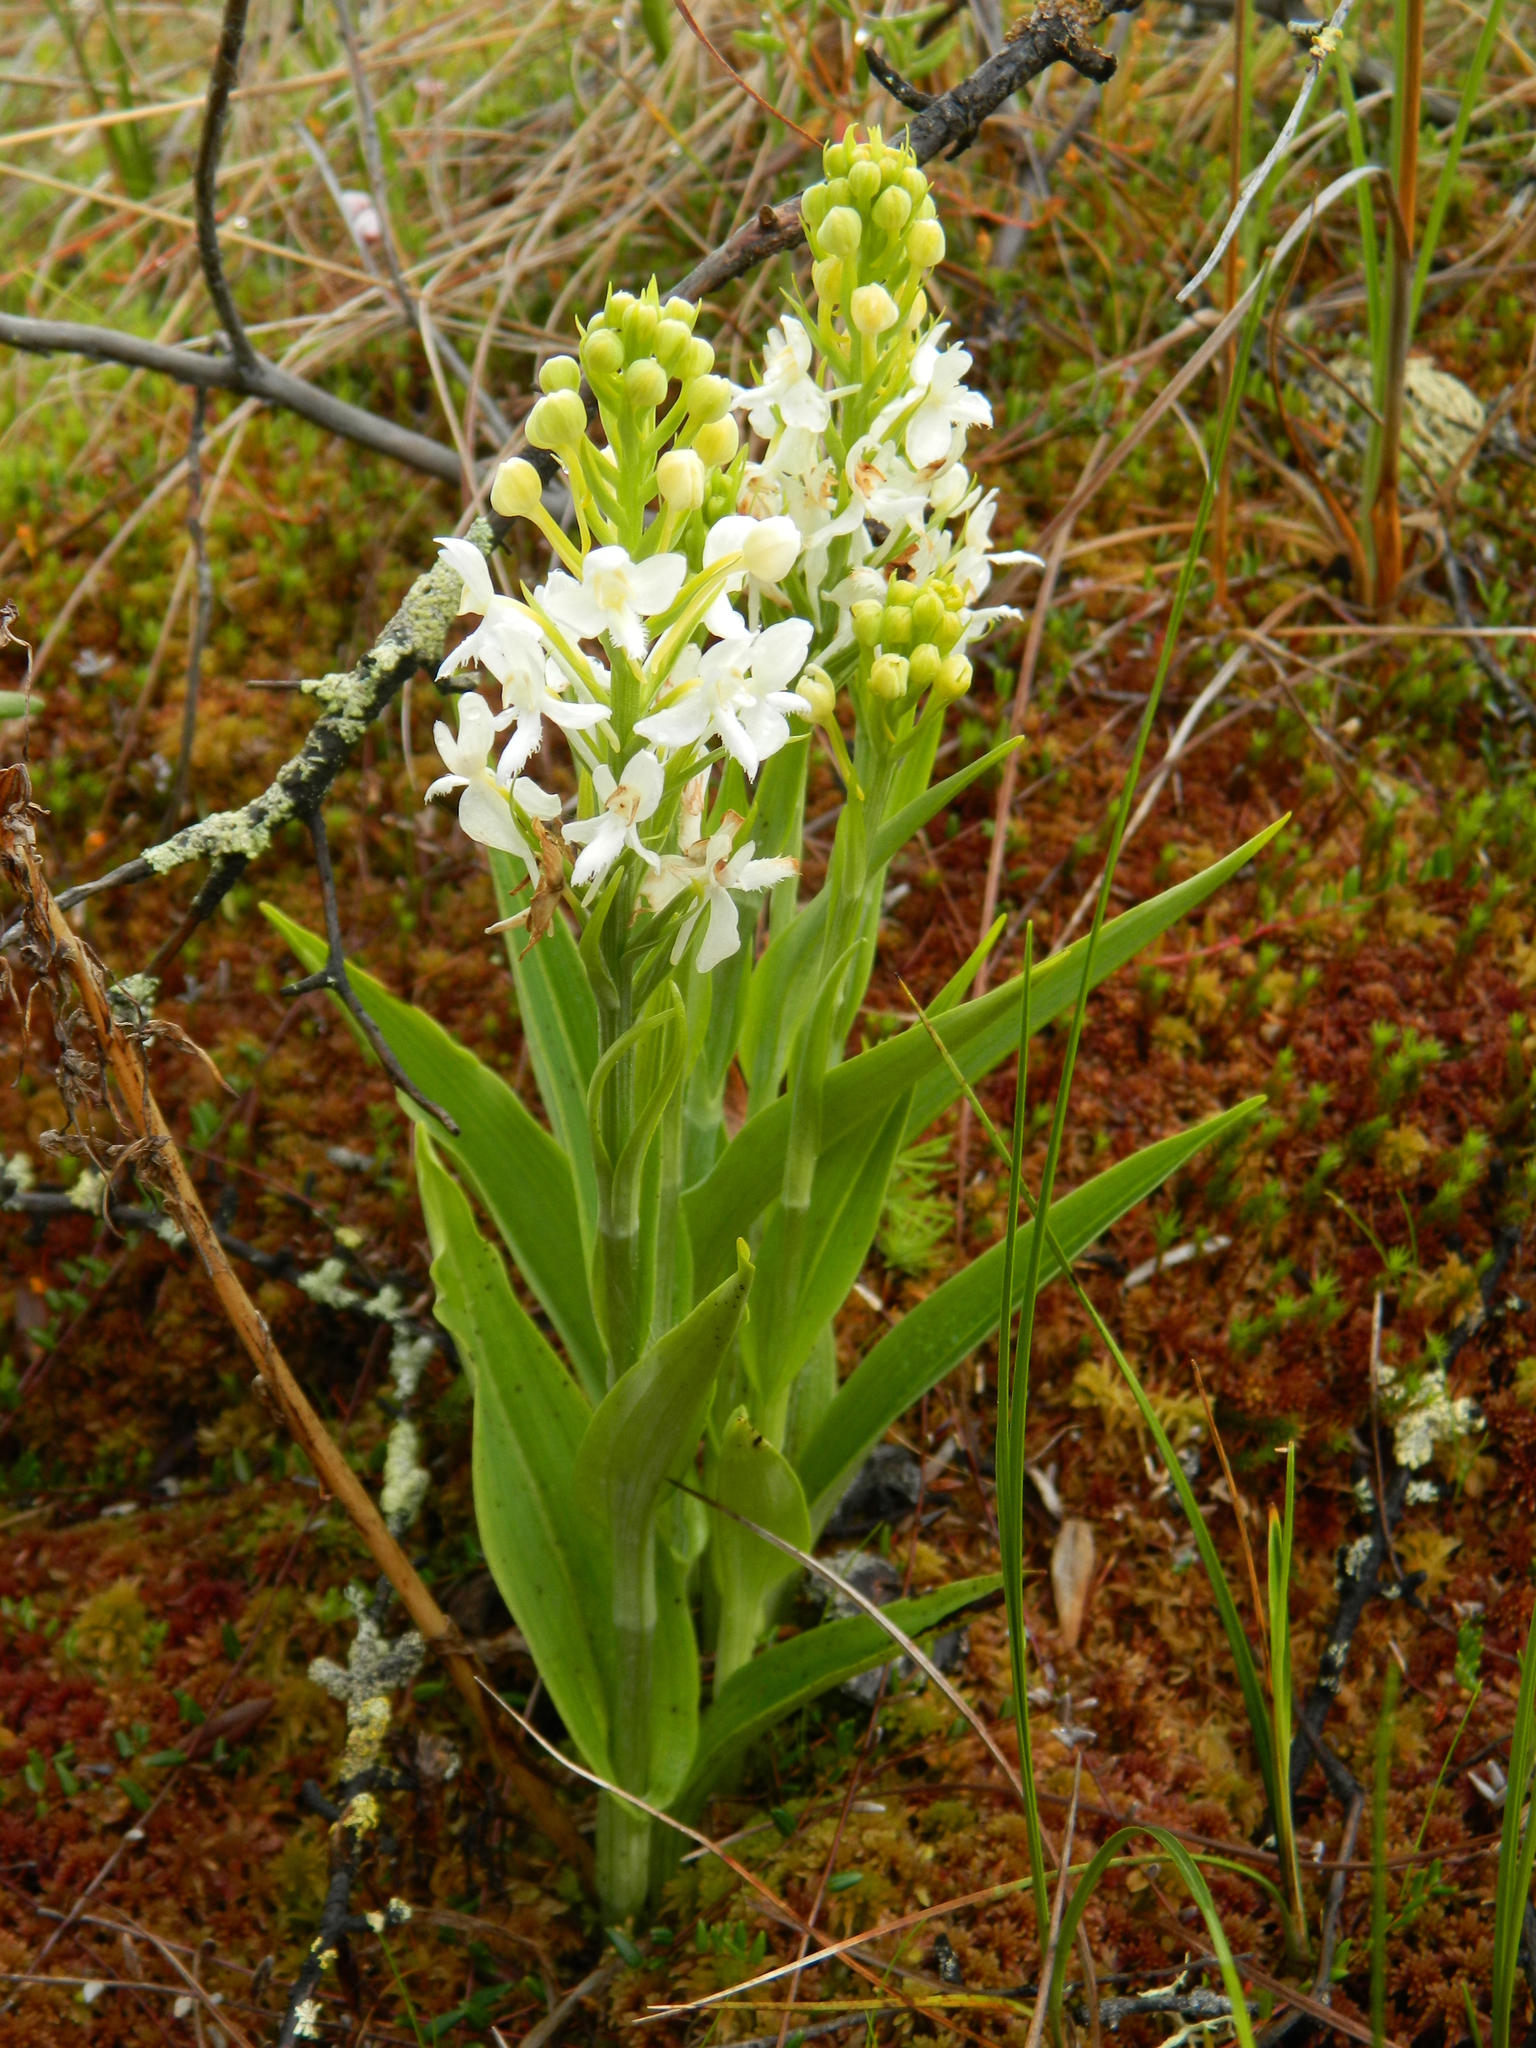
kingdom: Plantae
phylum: Tracheophyta
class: Liliopsida
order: Asparagales
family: Orchidaceae
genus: Platanthera
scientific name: Platanthera blephariglottis
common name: White fringed orchid
